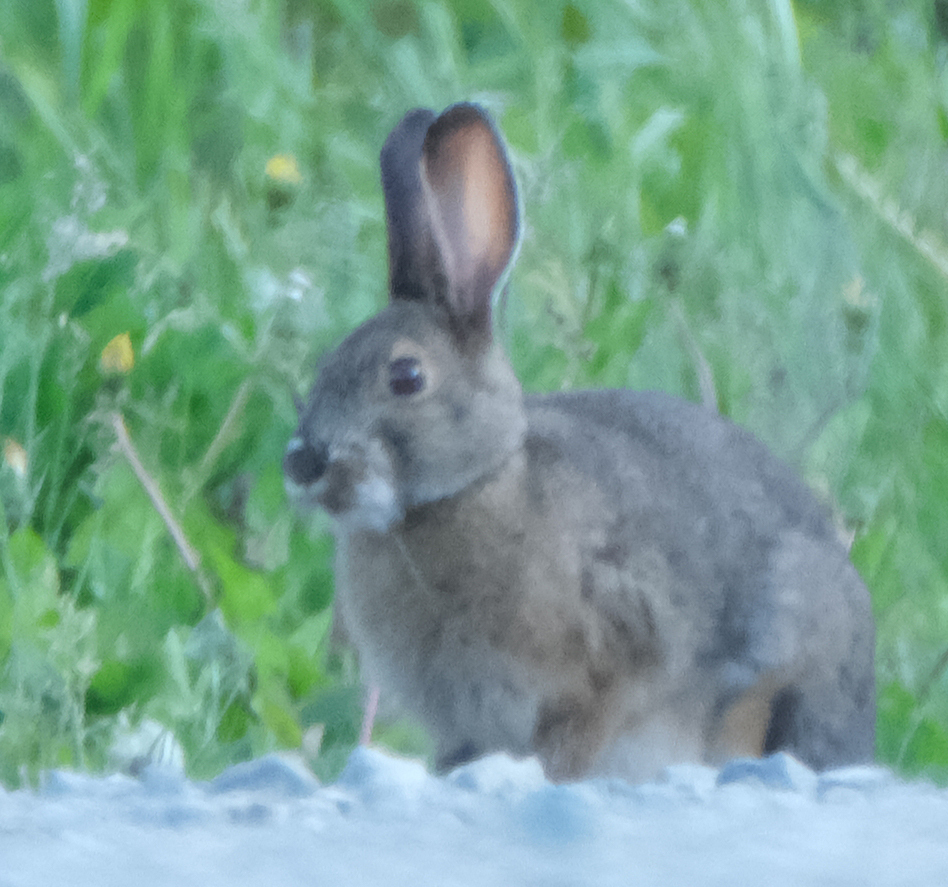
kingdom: Animalia
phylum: Chordata
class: Mammalia
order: Lagomorpha
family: Leporidae
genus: Lepus
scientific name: Lepus americanus
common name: Snowshoe hare
